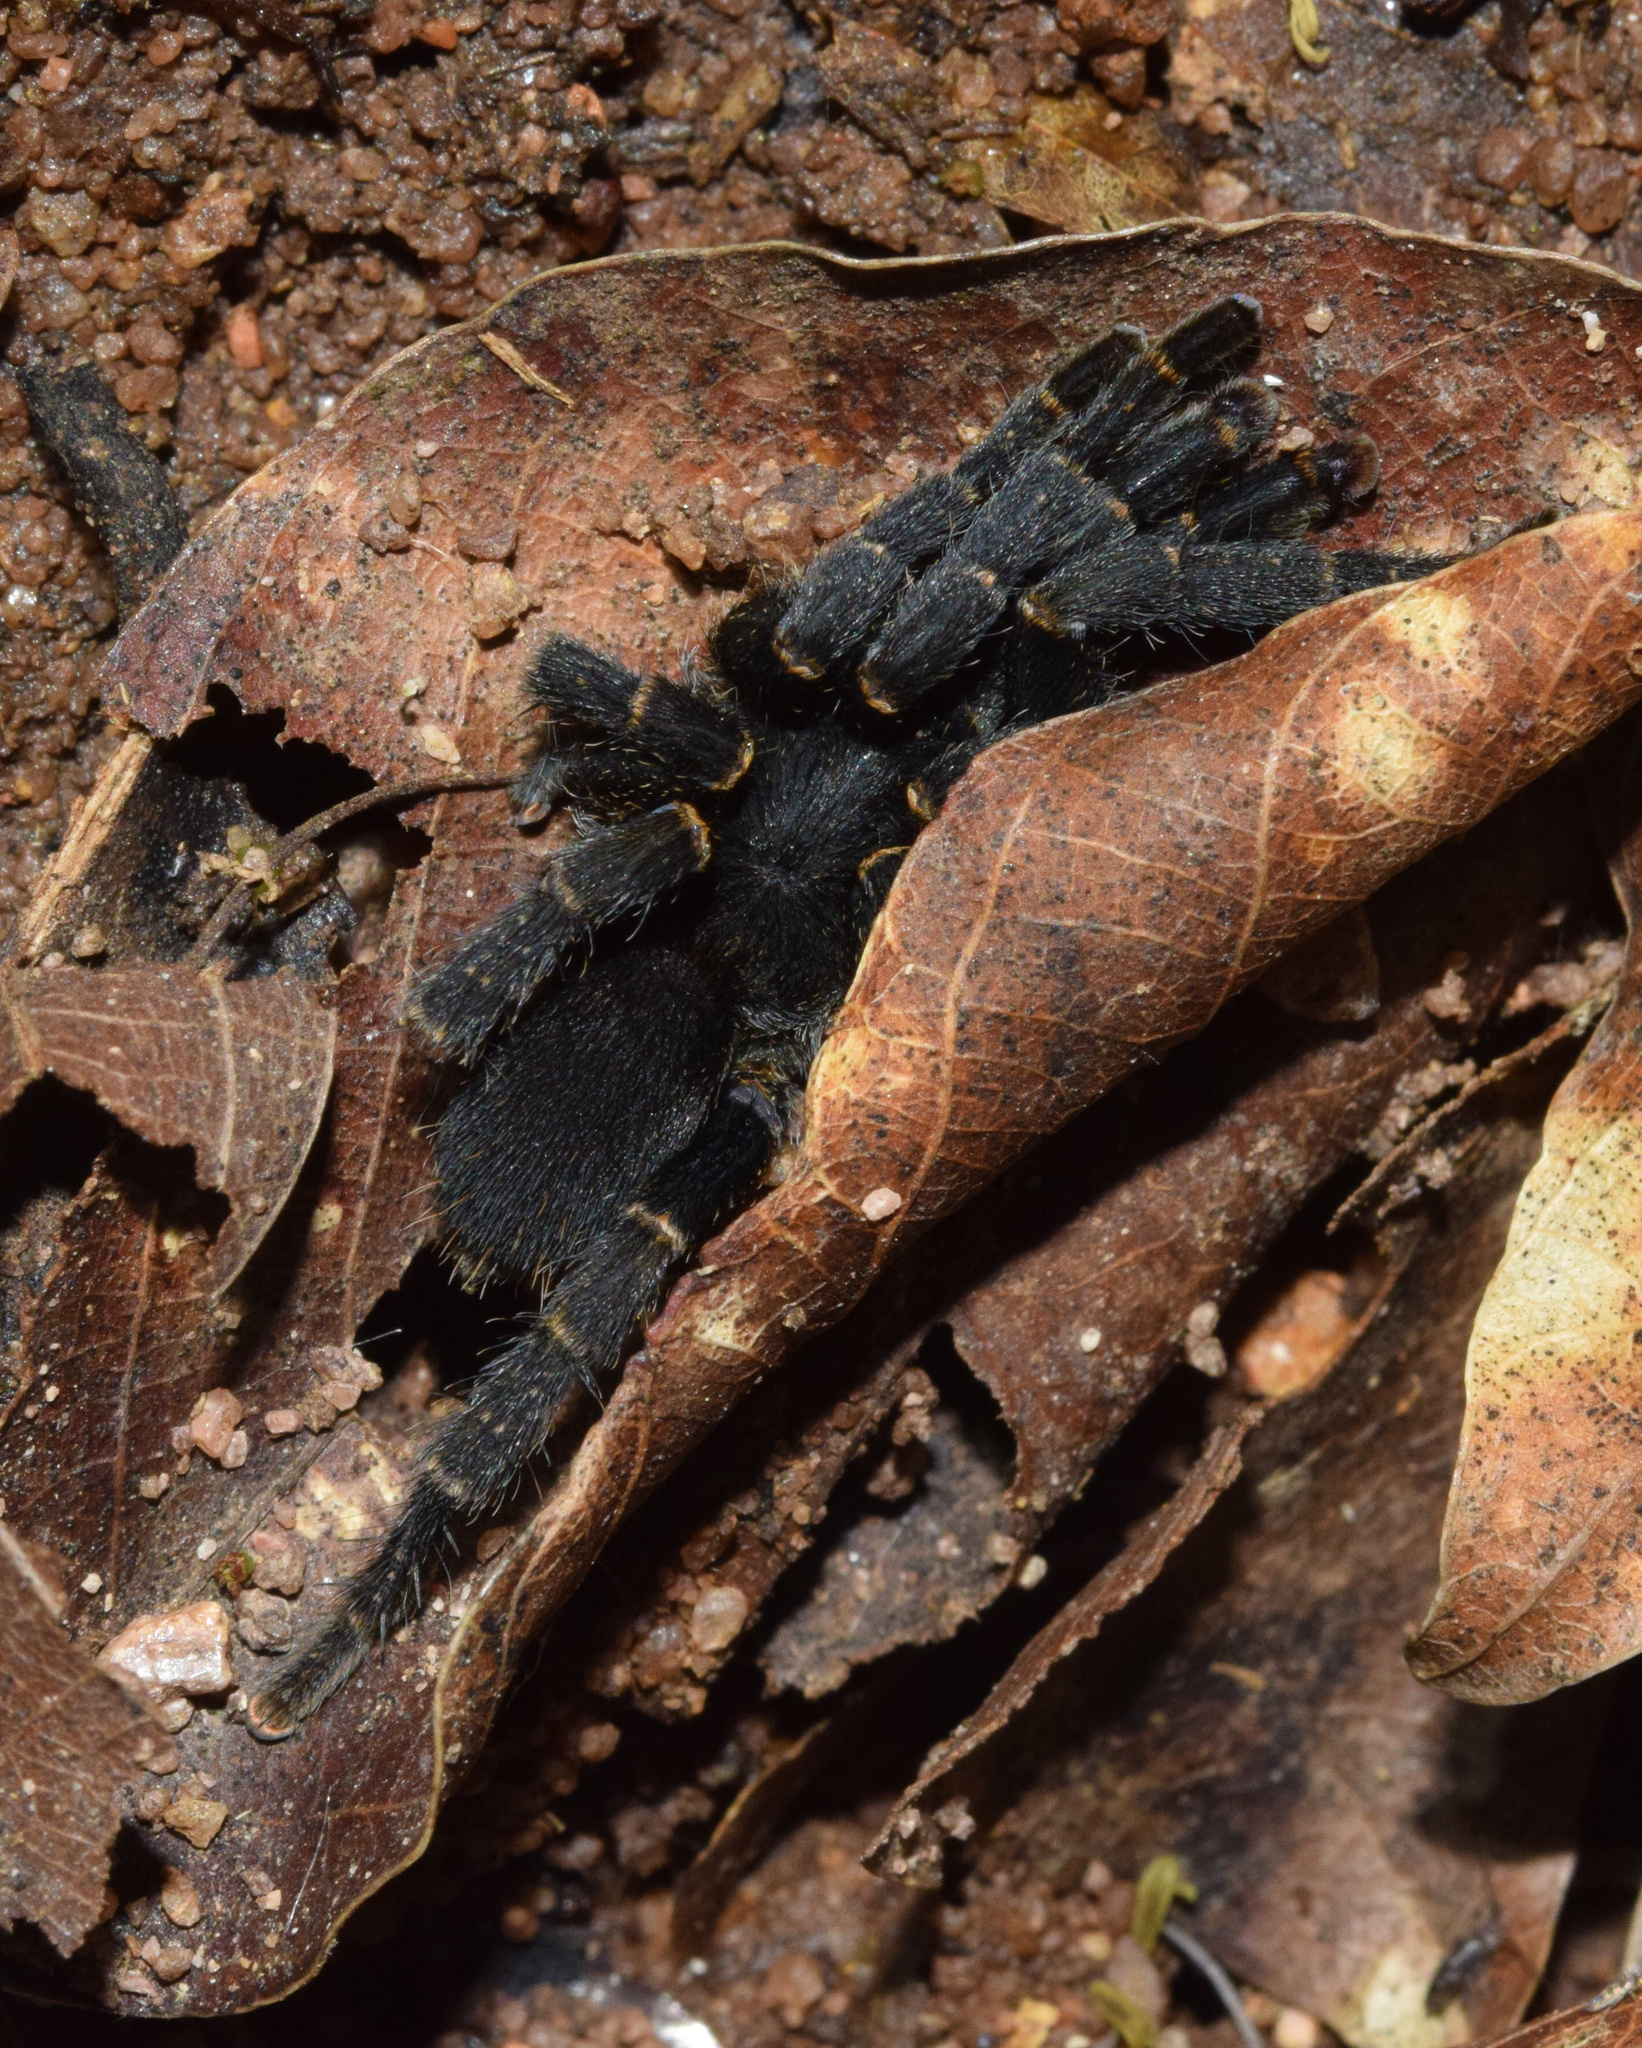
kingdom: Animalia
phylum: Arthropoda
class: Arachnida
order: Araneae
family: Theraphosidae
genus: Brachionopus
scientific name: Brachionopus robustus
